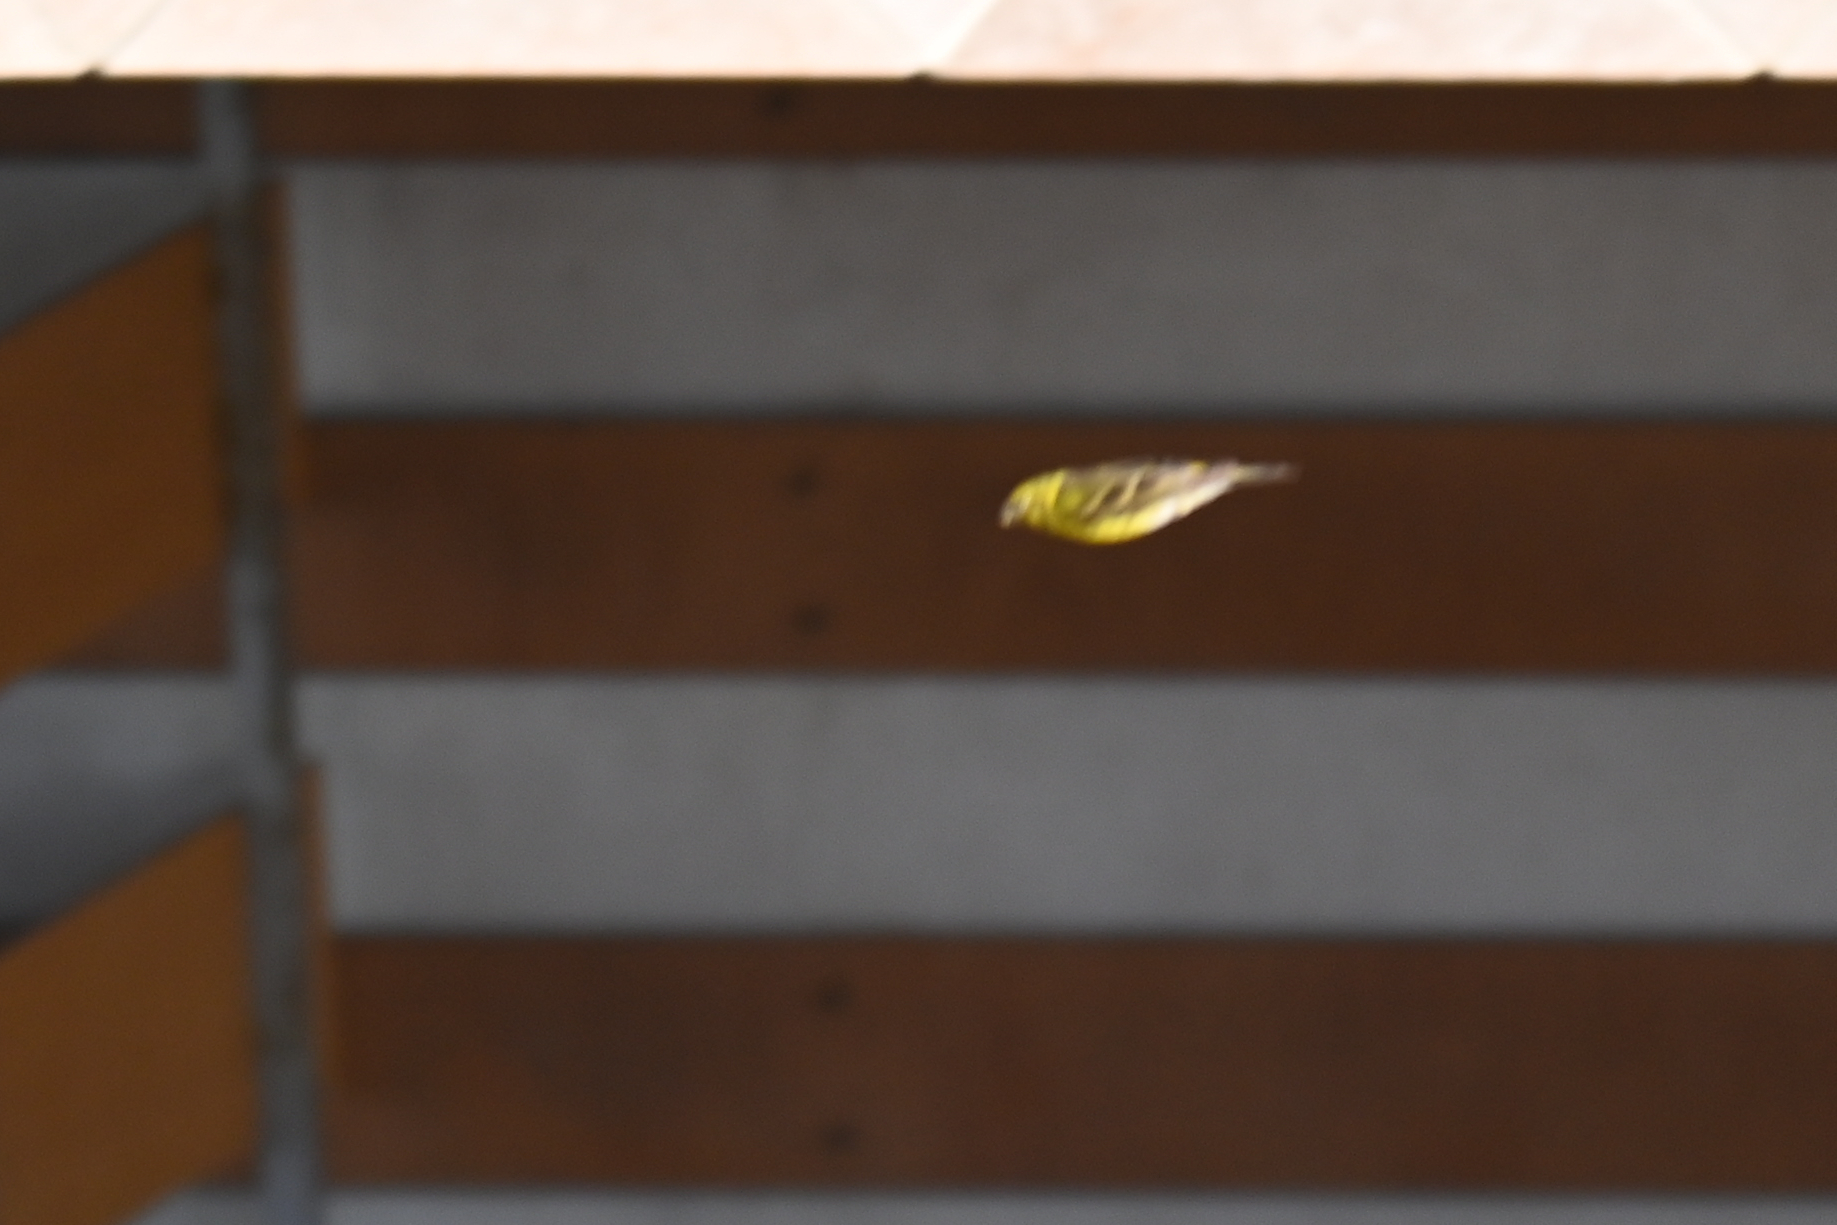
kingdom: Animalia
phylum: Chordata
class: Aves
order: Passeriformes
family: Fringillidae
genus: Serinus
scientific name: Serinus serinus
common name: European serin
